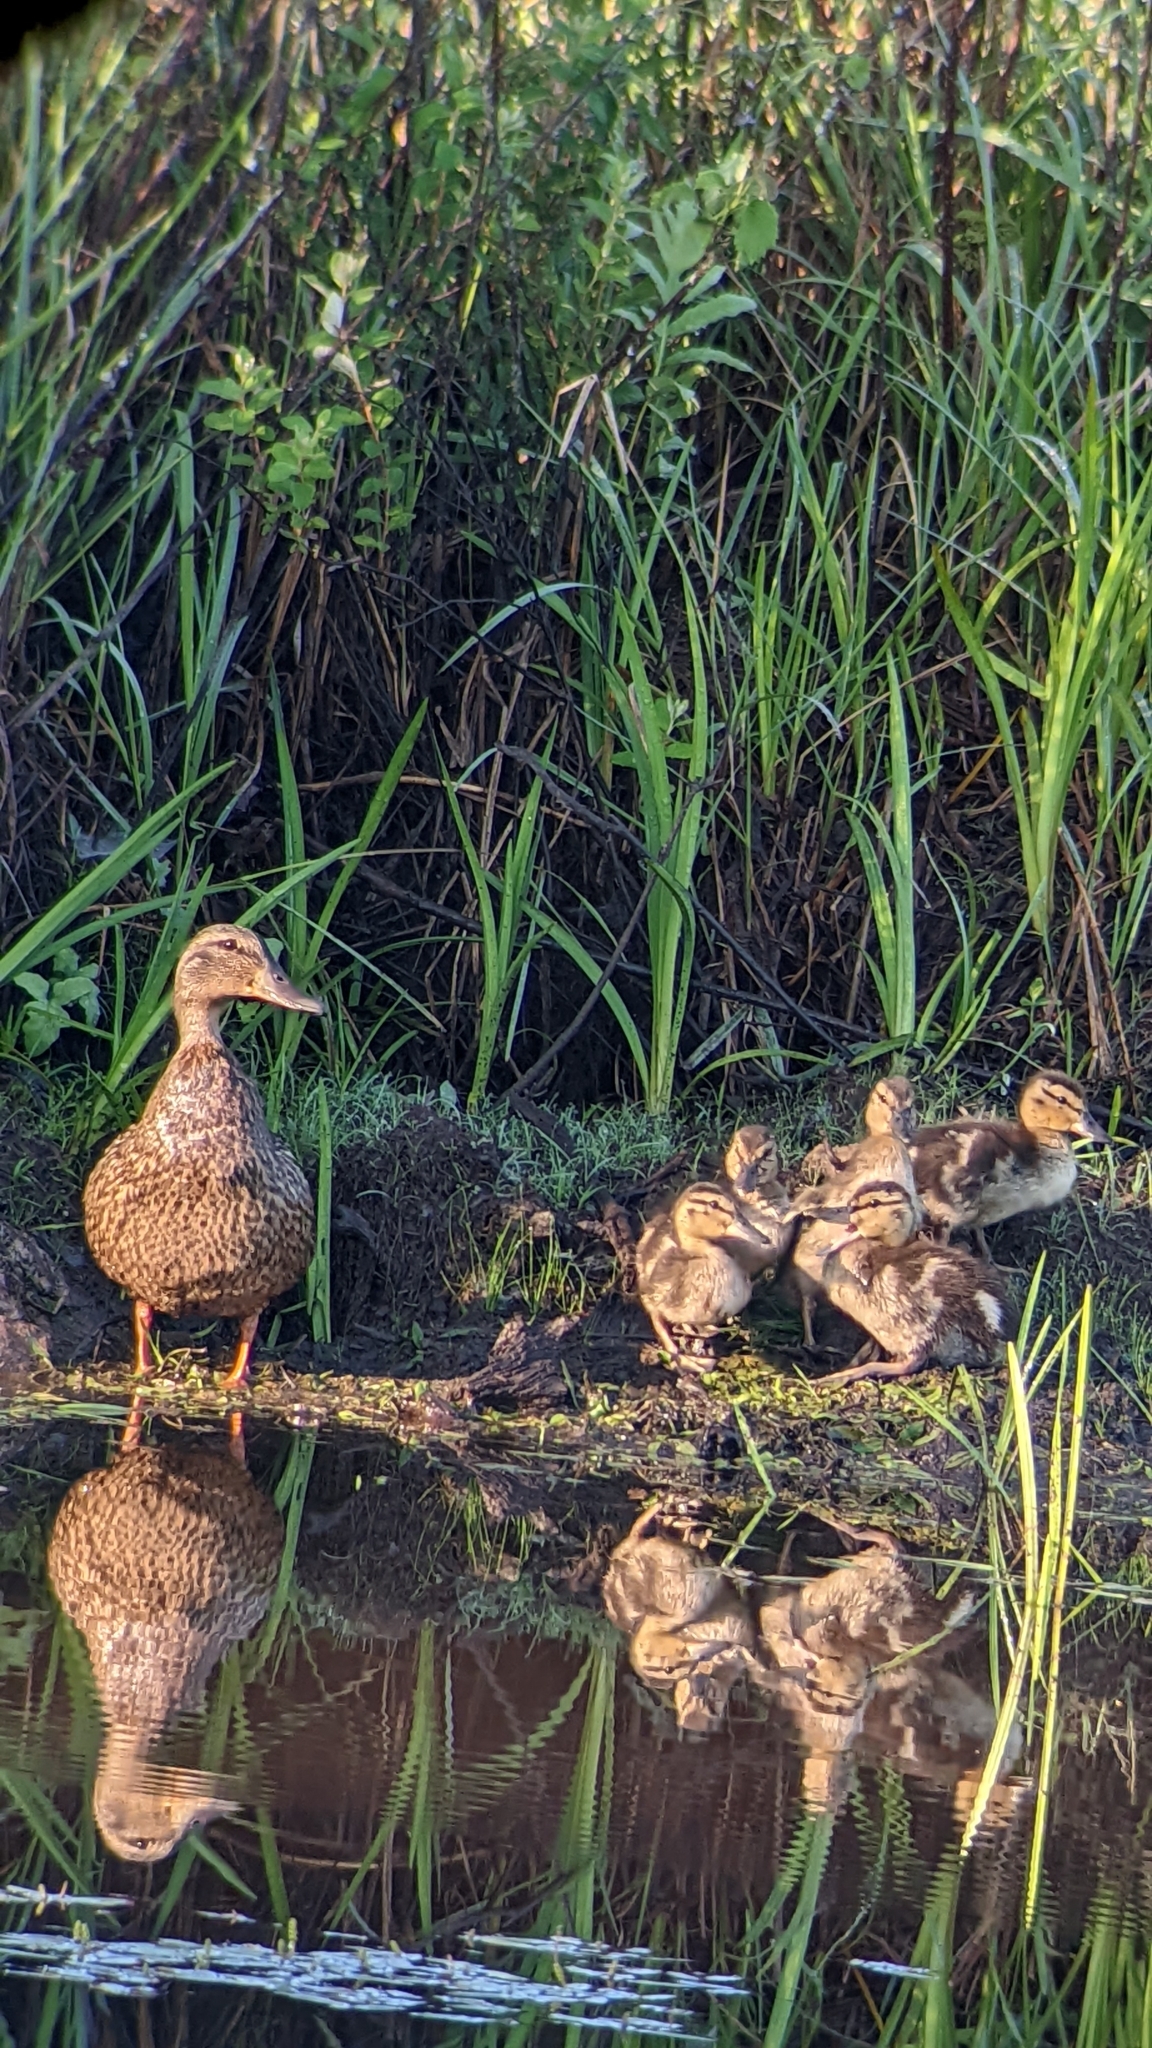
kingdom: Animalia
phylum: Chordata
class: Aves
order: Anseriformes
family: Anatidae
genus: Anas
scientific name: Anas platyrhynchos
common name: Mallard
